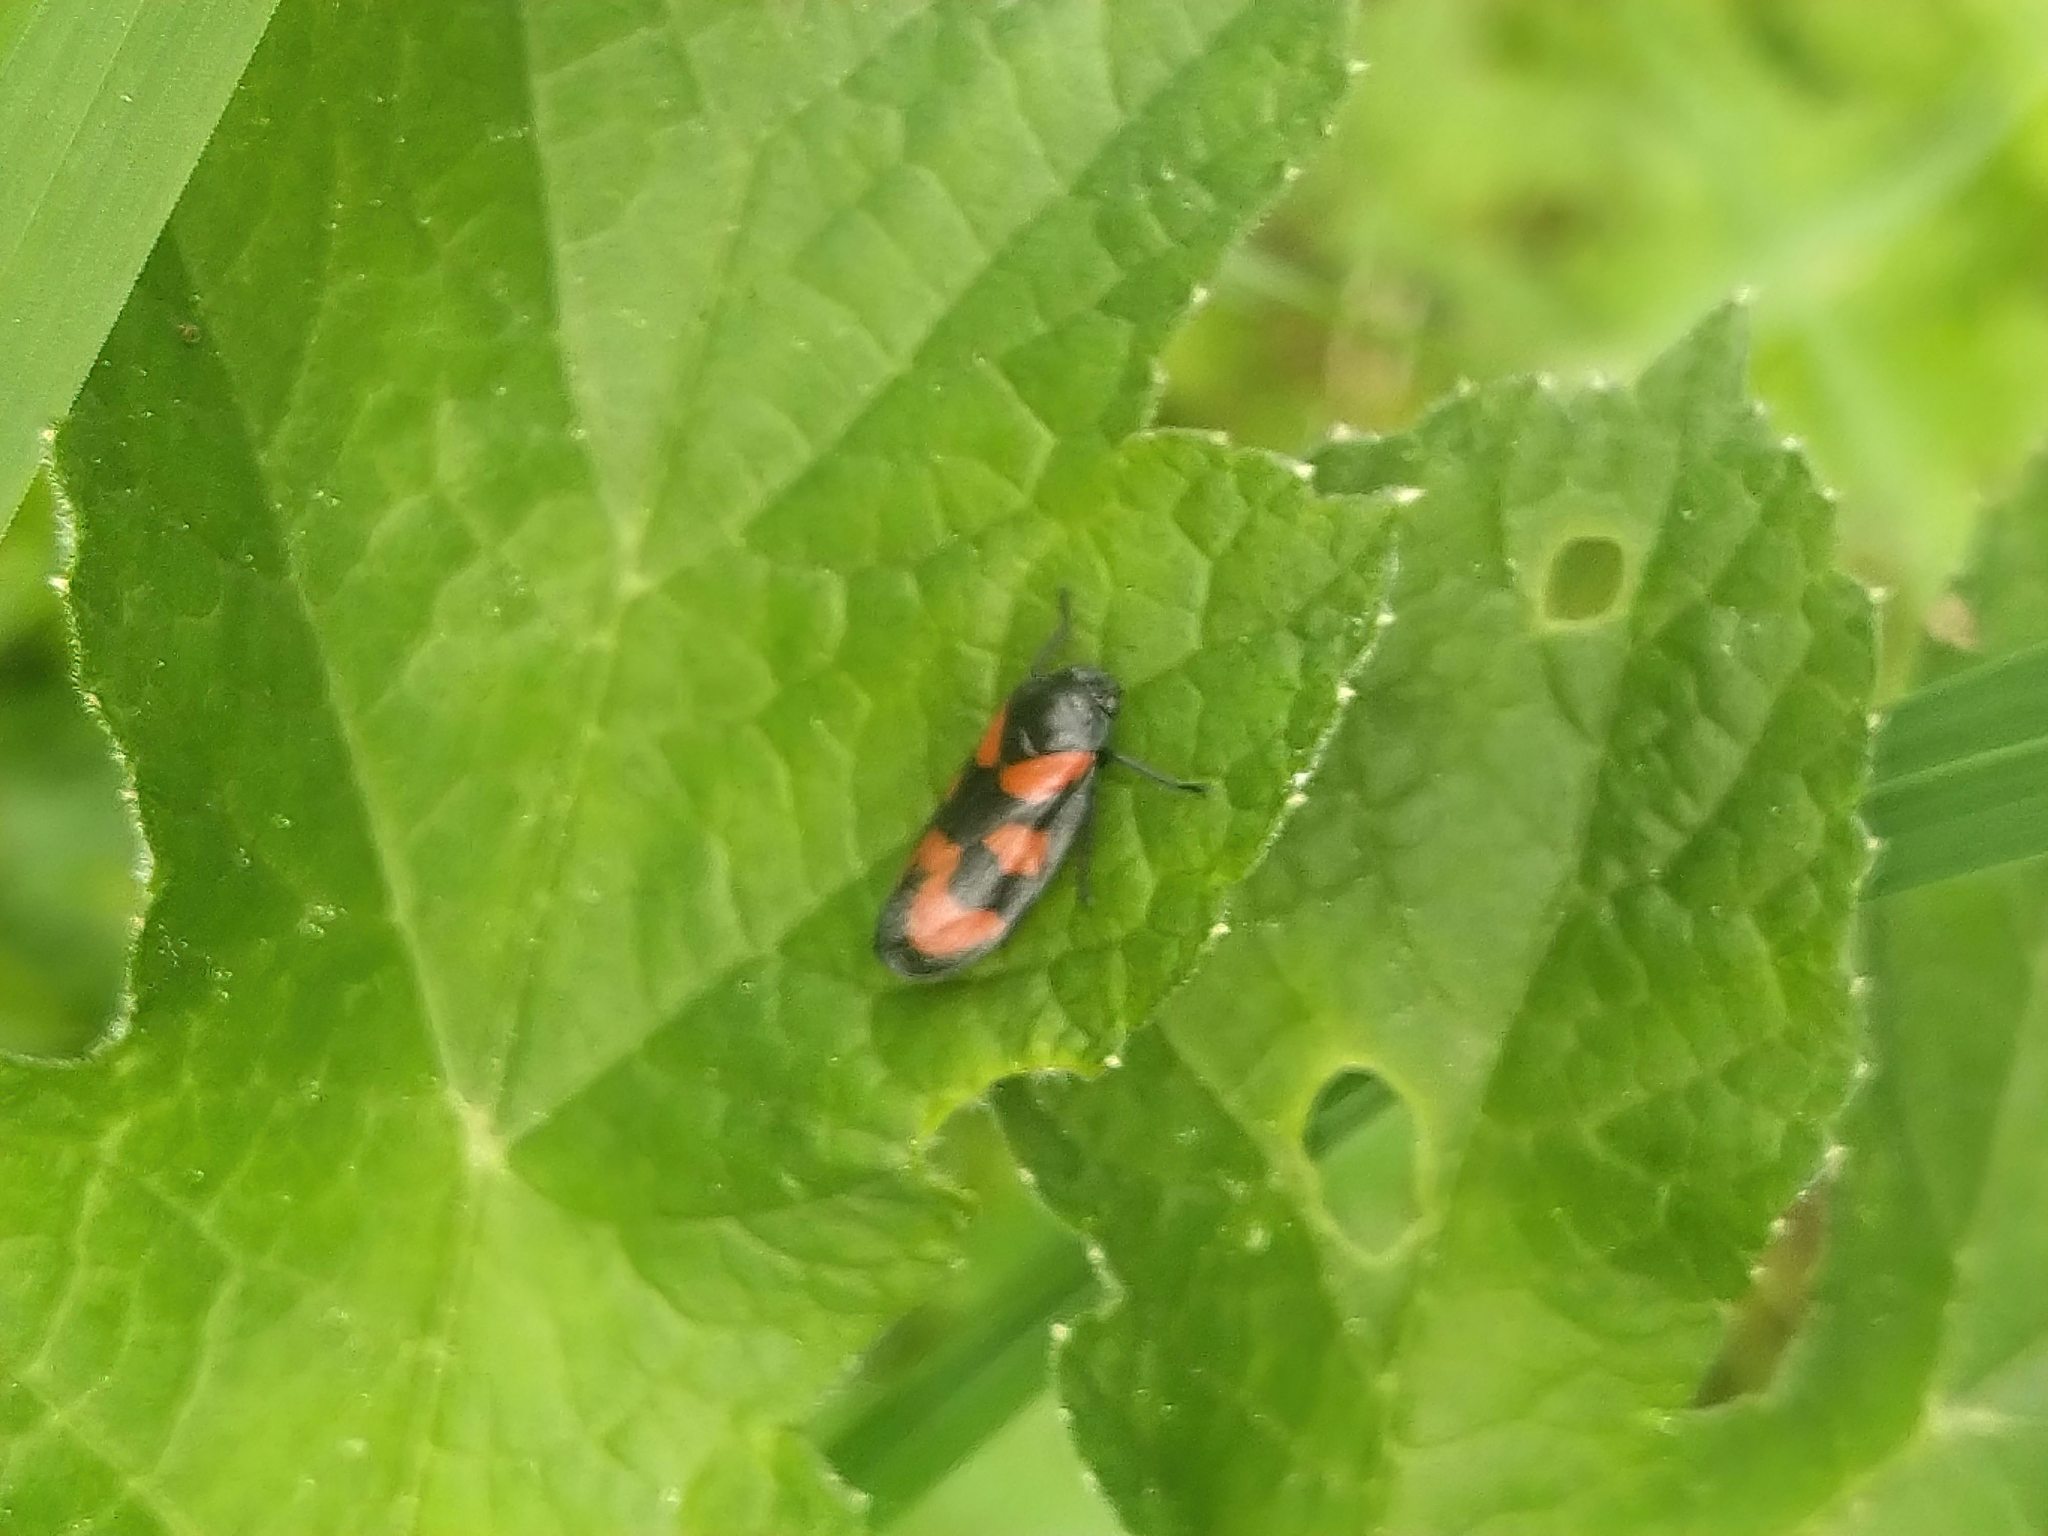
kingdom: Animalia
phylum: Arthropoda
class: Insecta
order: Hemiptera
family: Cercopidae
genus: Cercopis
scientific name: Cercopis vulnerata
